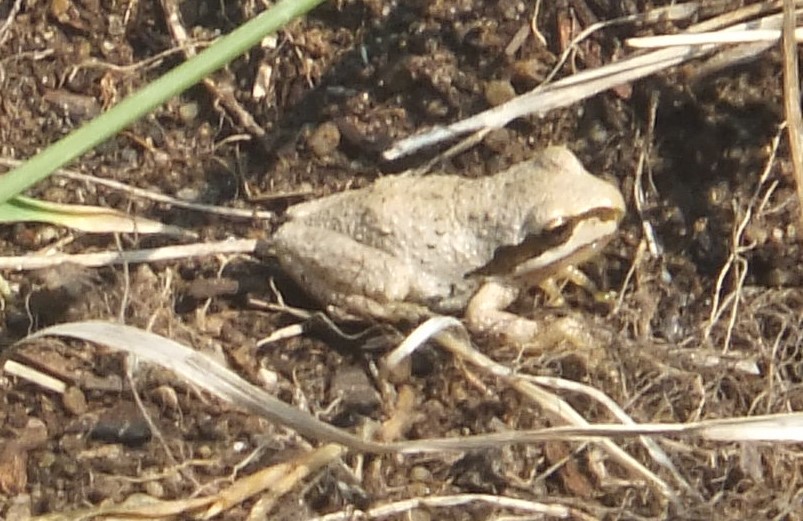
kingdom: Animalia
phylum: Chordata
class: Amphibia
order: Anura
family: Hylidae
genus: Pseudacris
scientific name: Pseudacris regilla
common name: Pacific chorus frog
